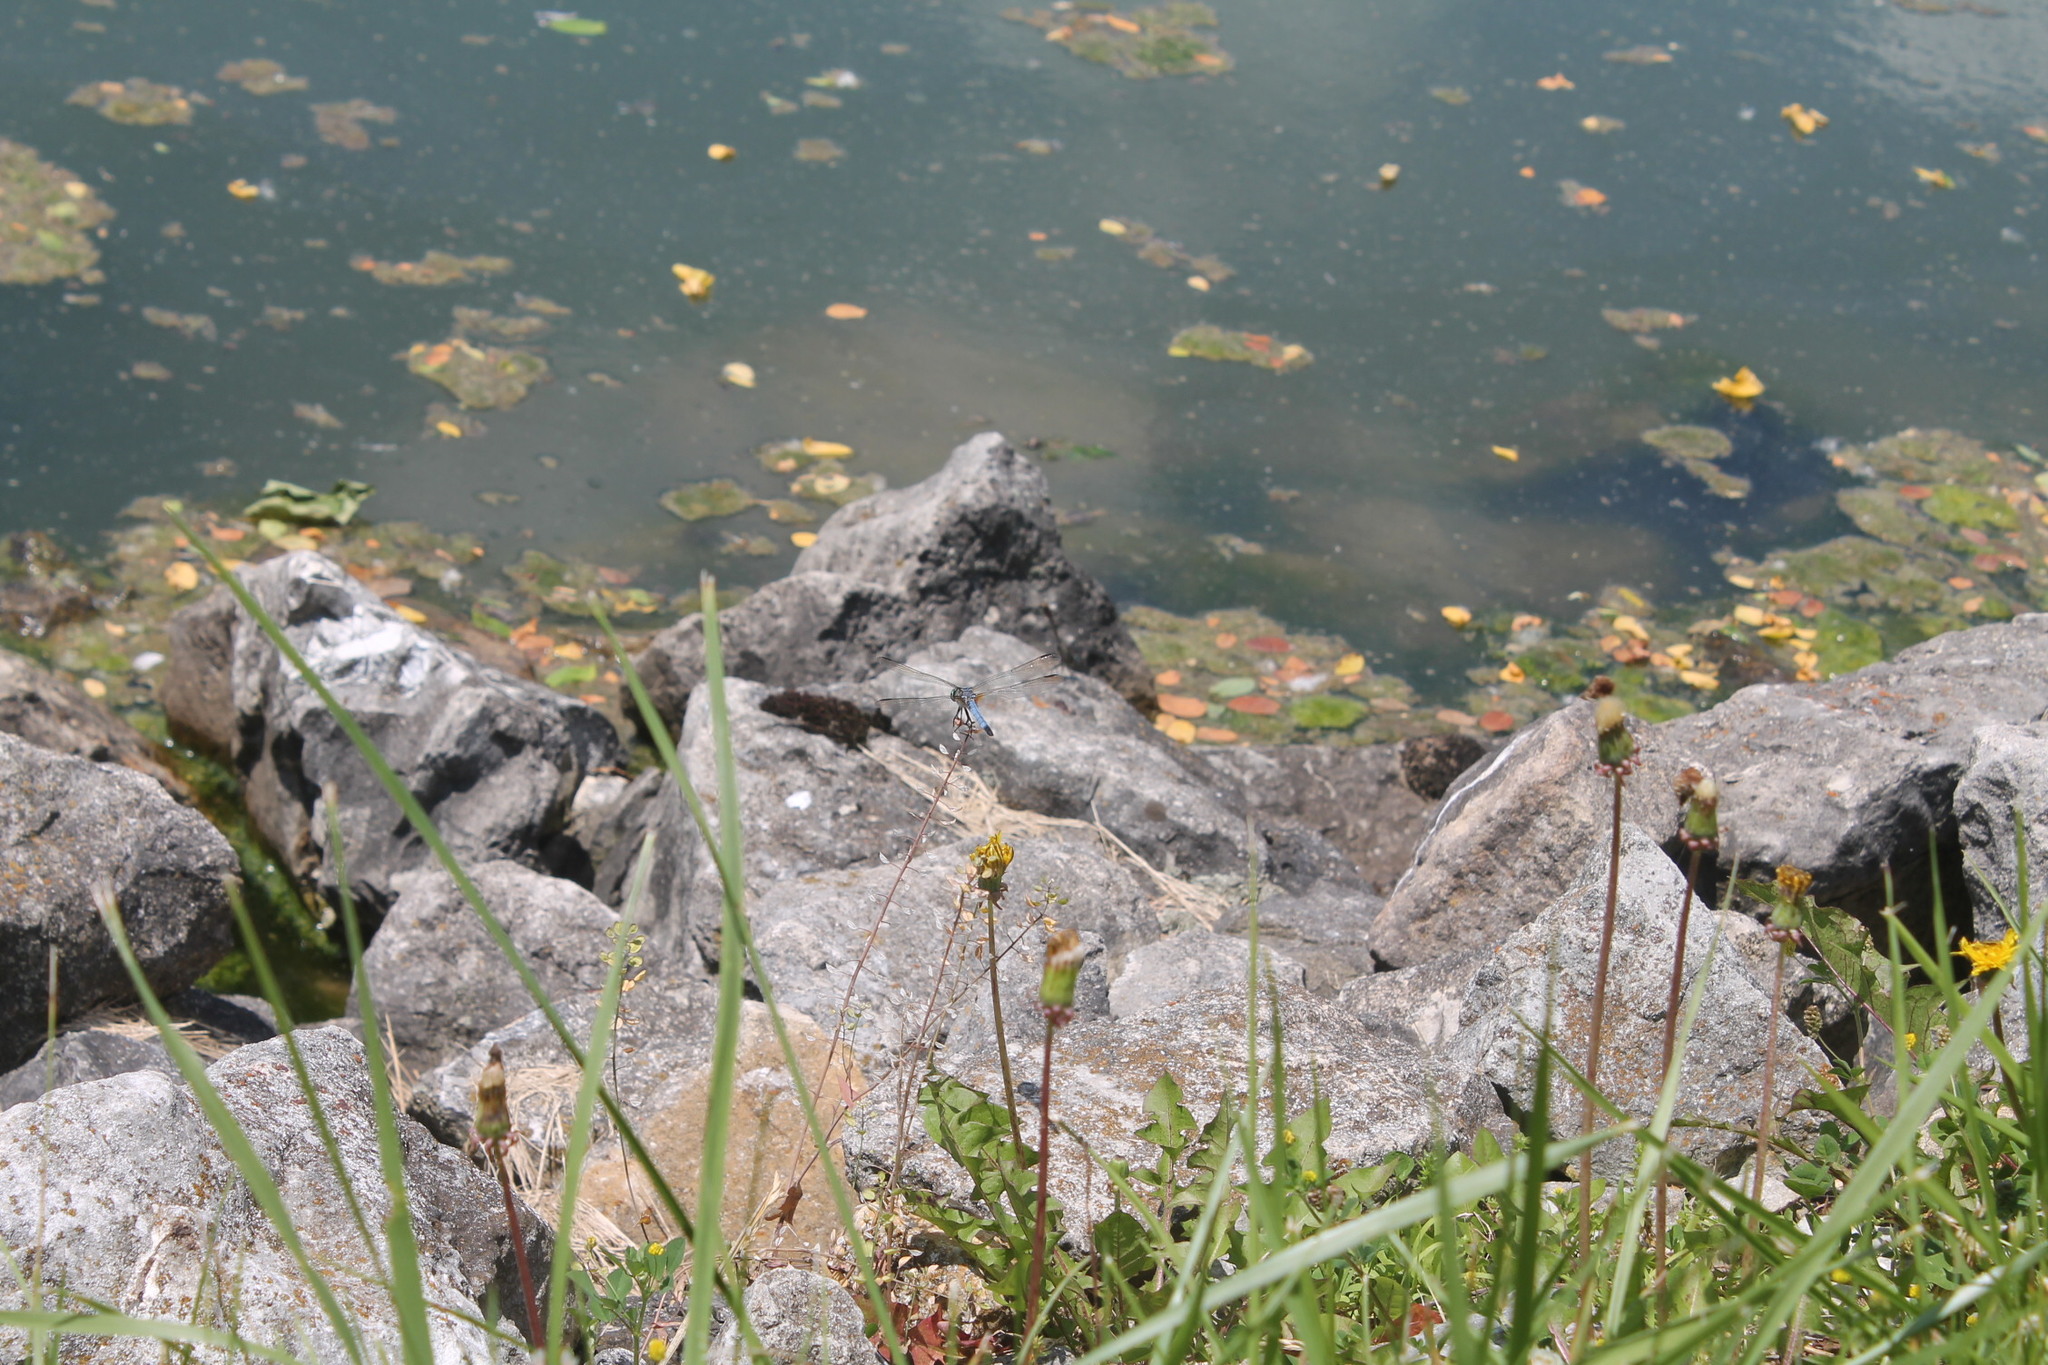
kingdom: Animalia
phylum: Arthropoda
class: Insecta
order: Odonata
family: Libellulidae
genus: Pachydiplax
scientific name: Pachydiplax longipennis
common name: Blue dasher
